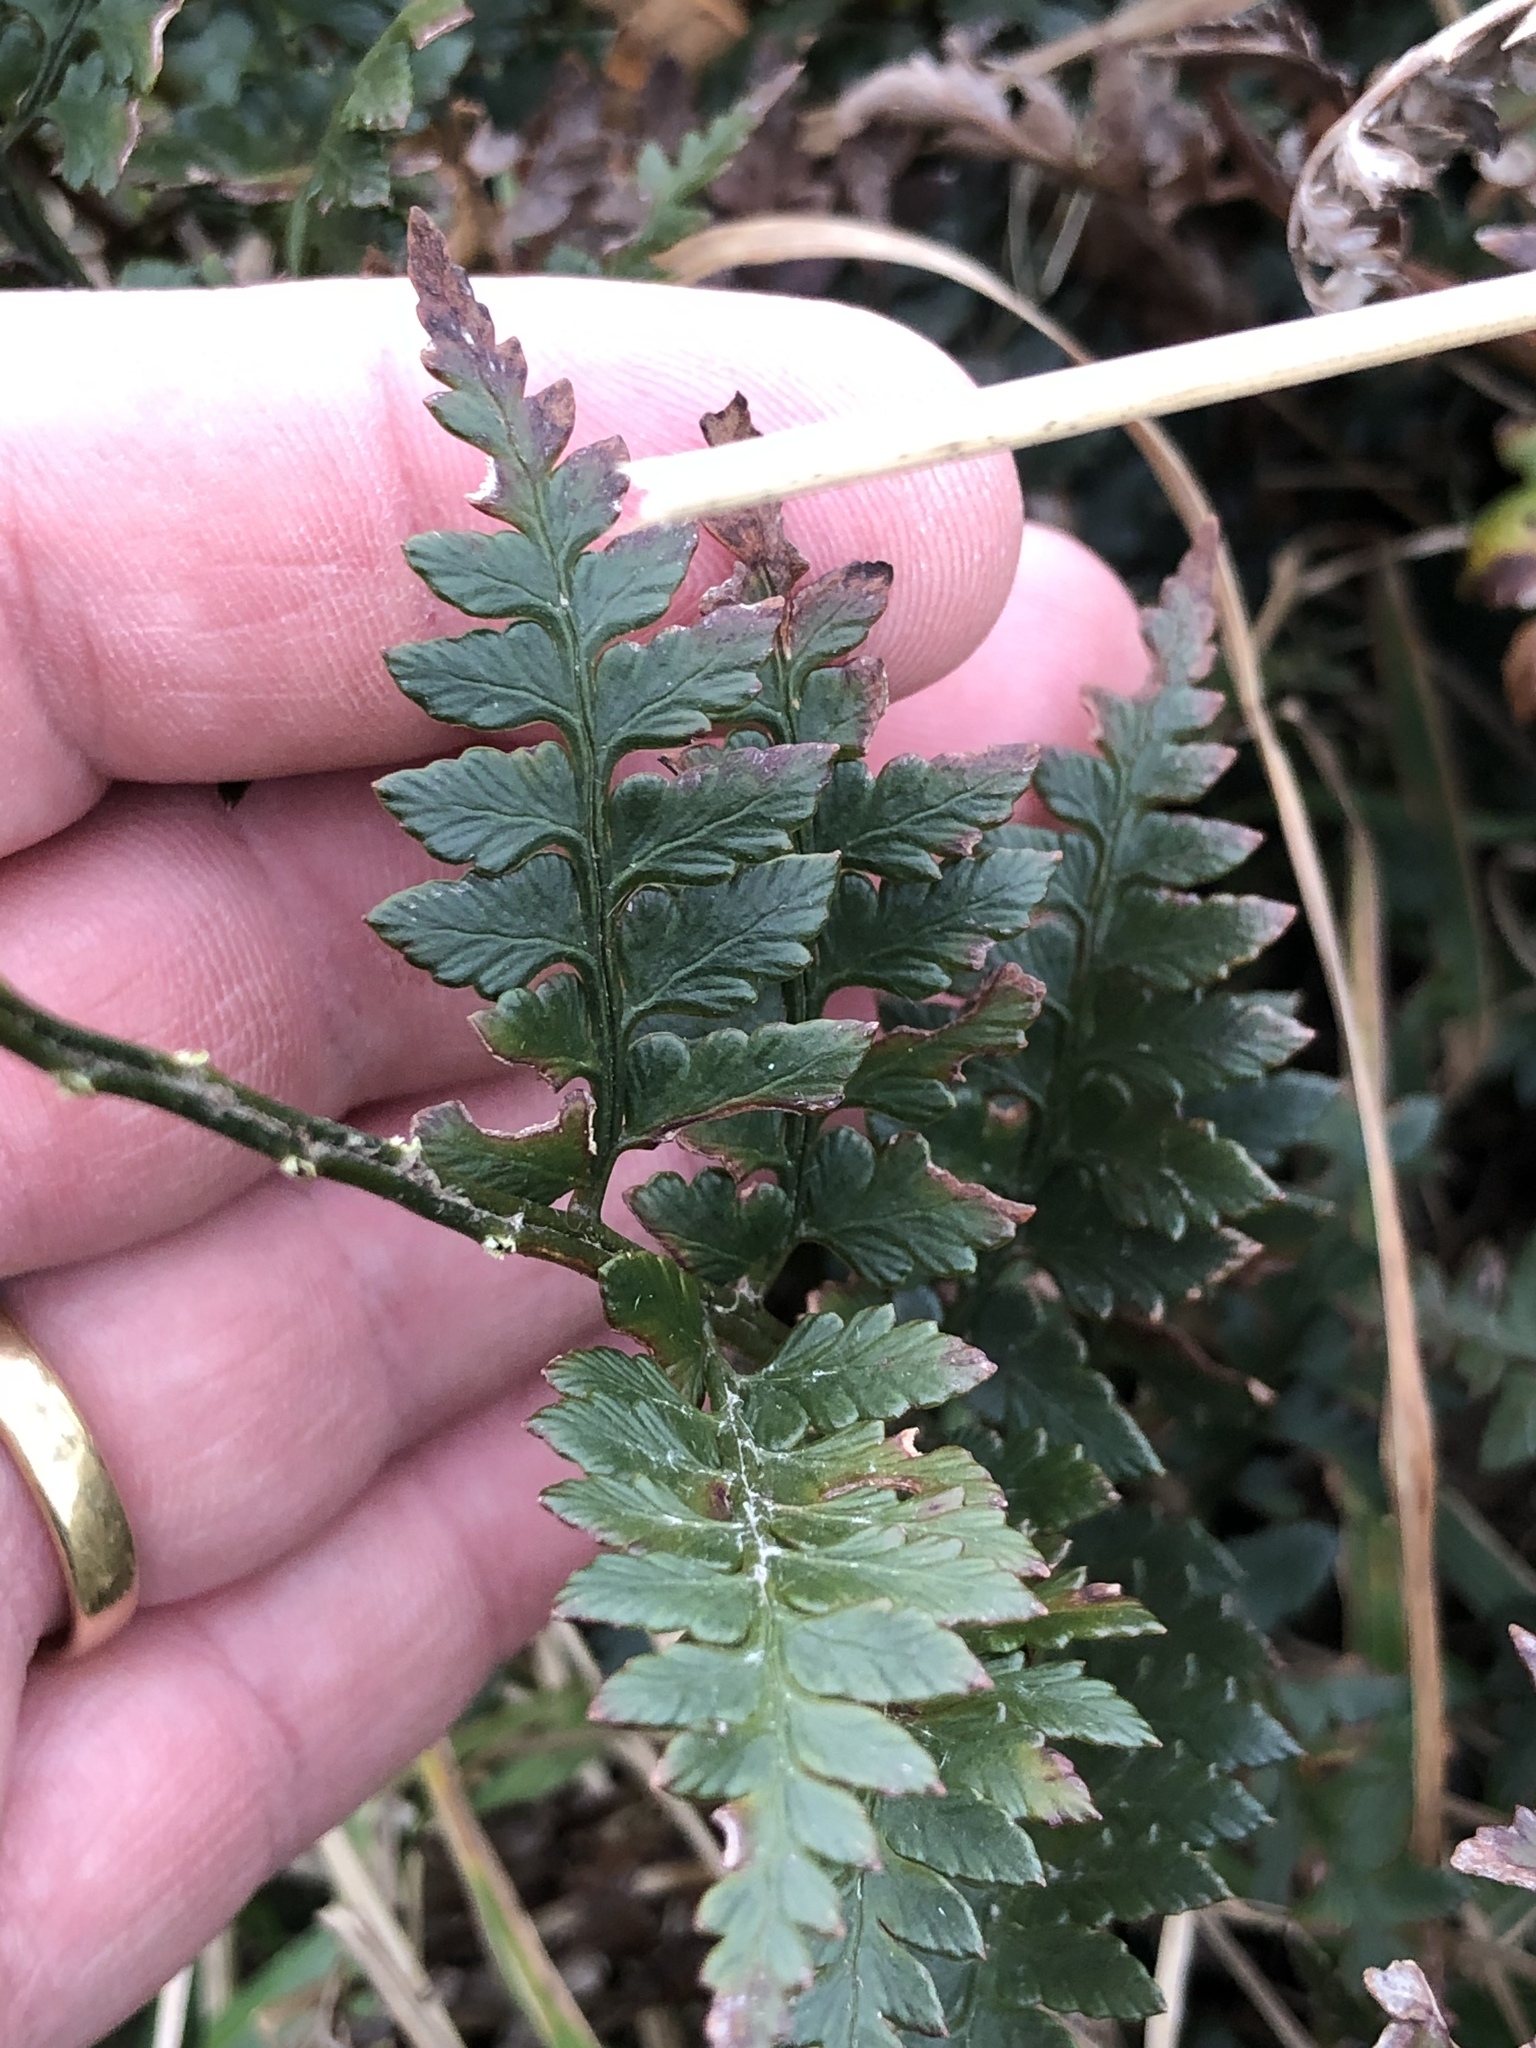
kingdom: Plantae
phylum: Tracheophyta
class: Polypodiopsida
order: Polypodiales
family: Dryopteridaceae
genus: Polystichum
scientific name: Polystichum oculatum
